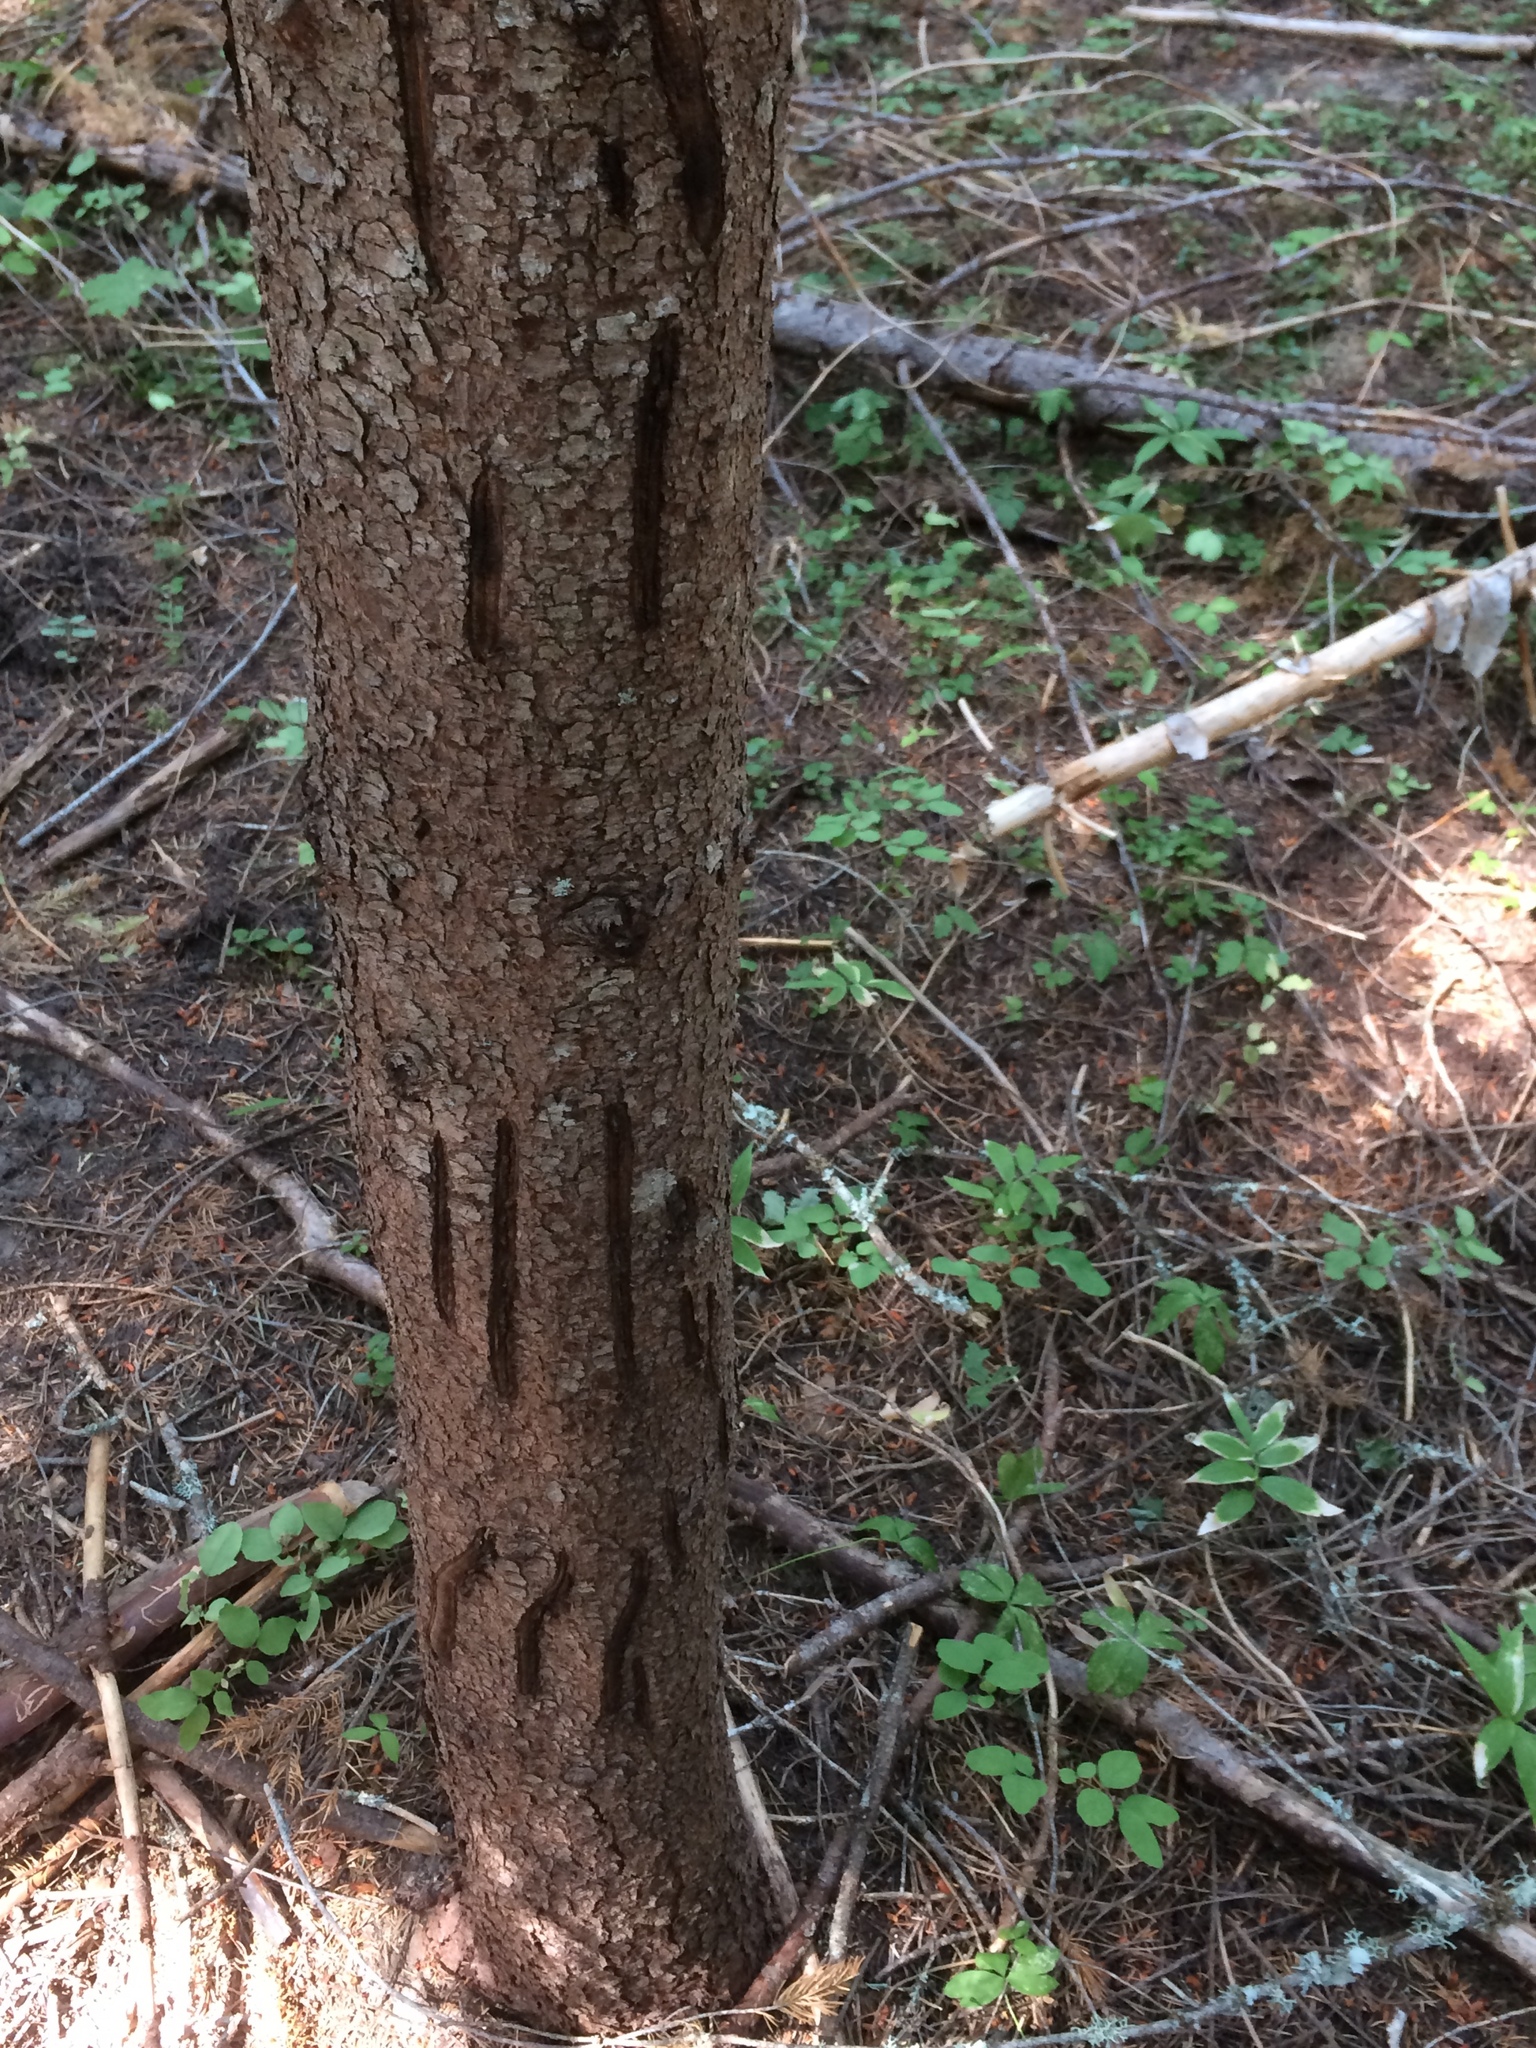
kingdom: Animalia
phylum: Chordata
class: Mammalia
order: Carnivora
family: Ursidae
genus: Ursus
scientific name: Ursus americanus
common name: American black bear
